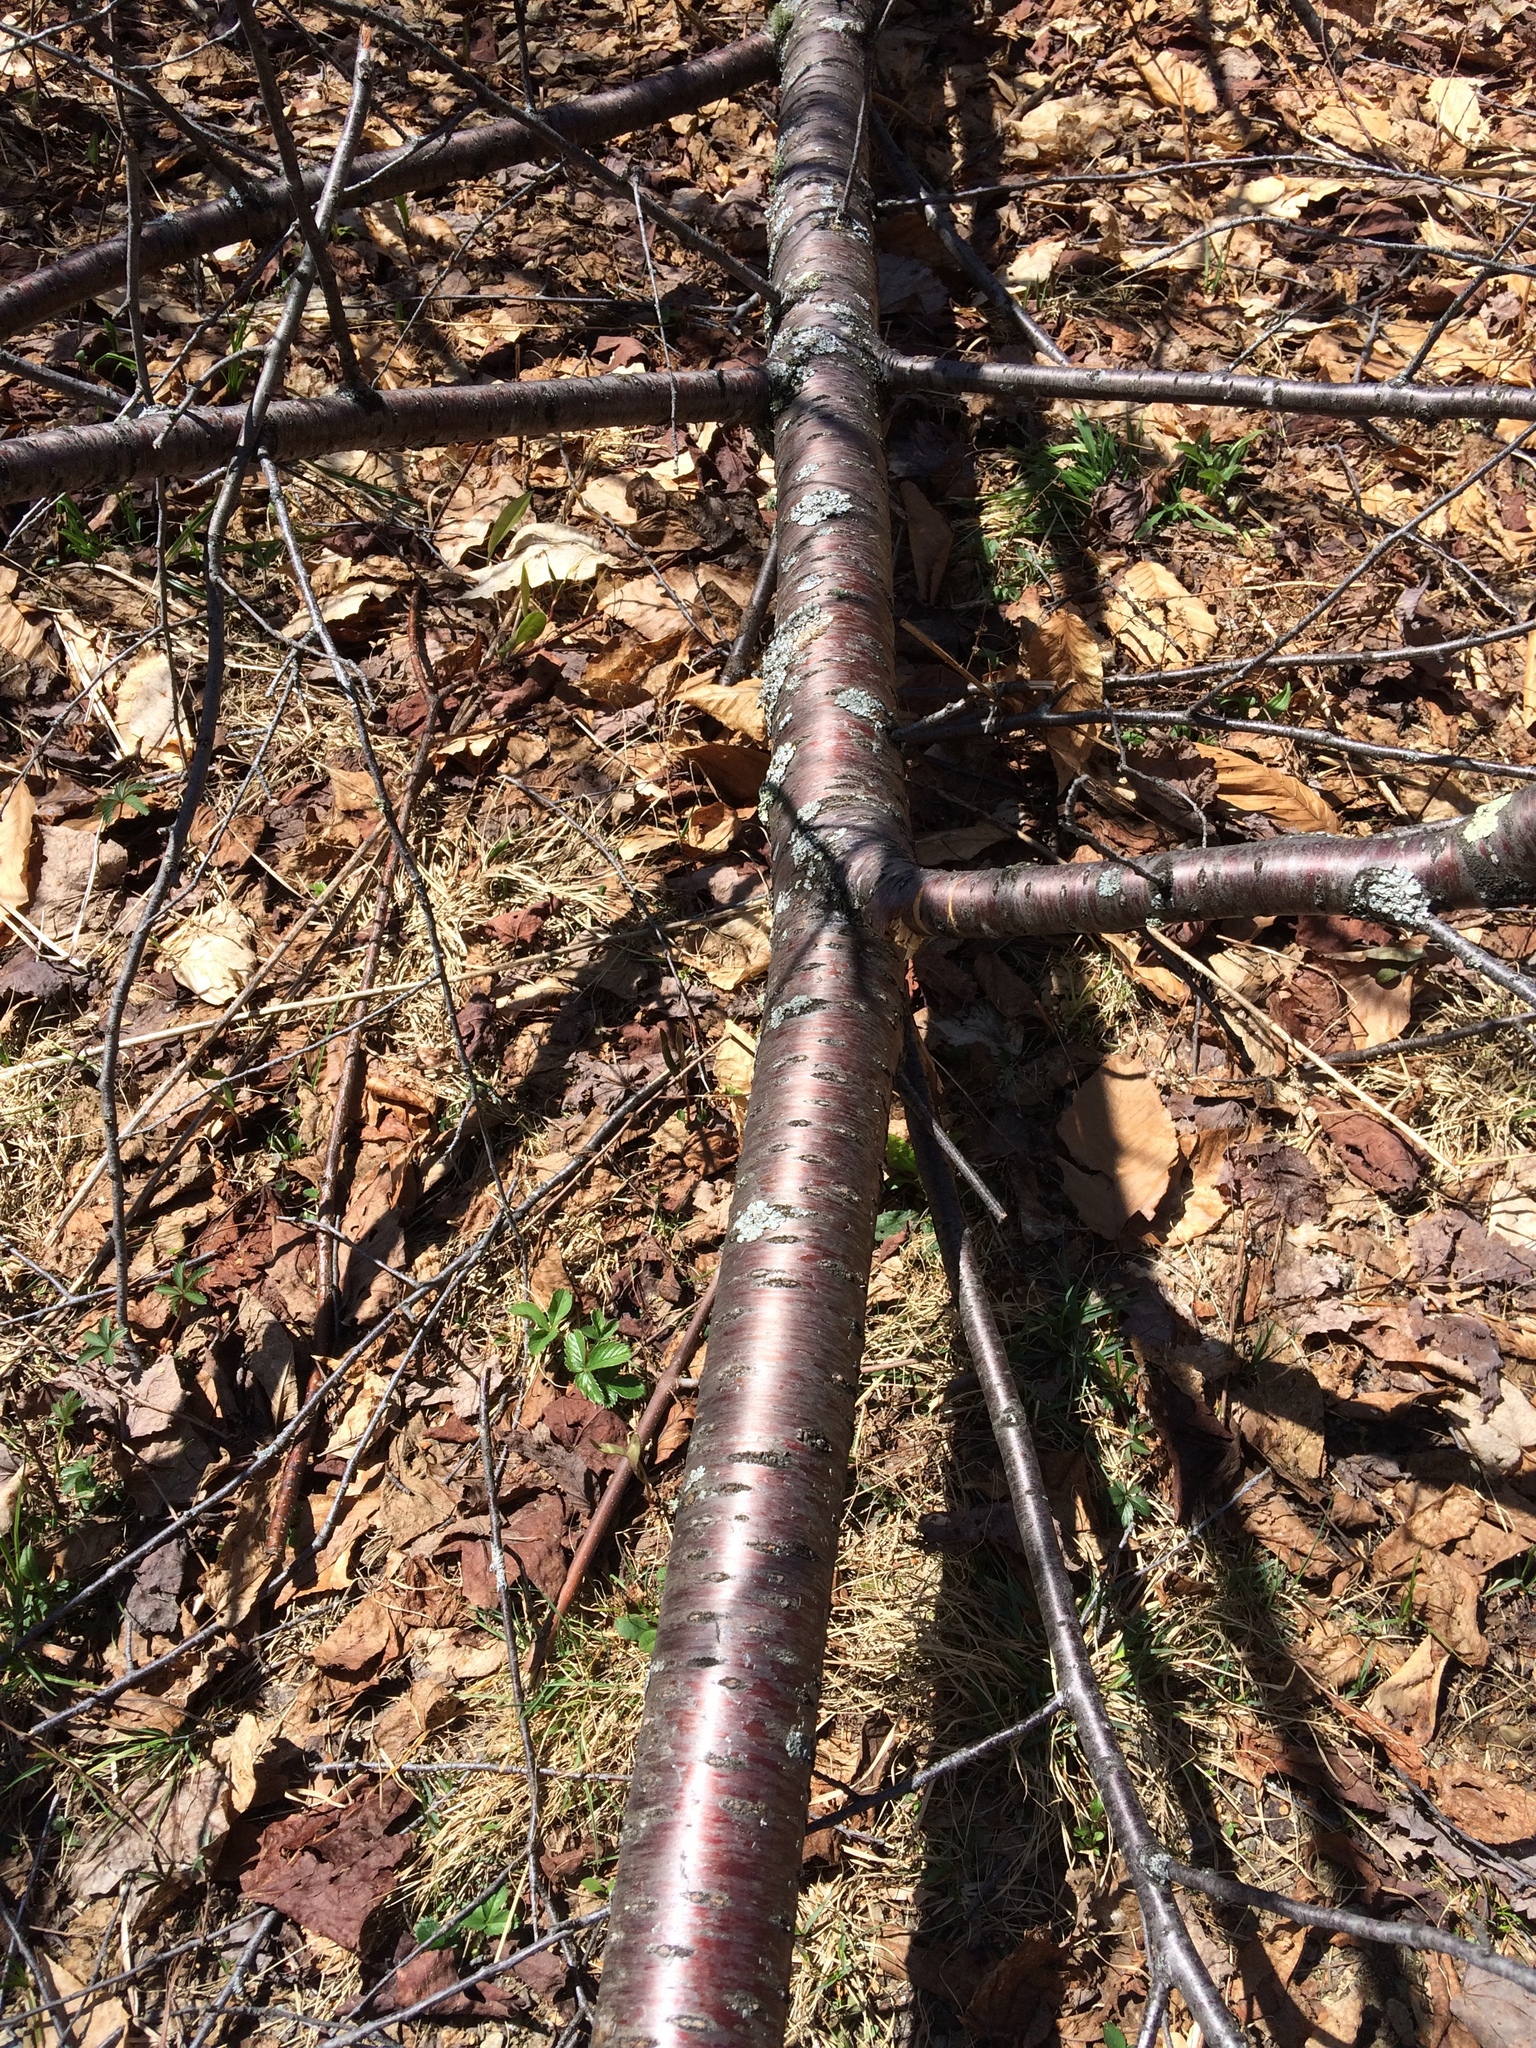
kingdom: Plantae
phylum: Tracheophyta
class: Magnoliopsida
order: Rosales
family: Rosaceae
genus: Prunus
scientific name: Prunus pensylvanica
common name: Pin cherry
